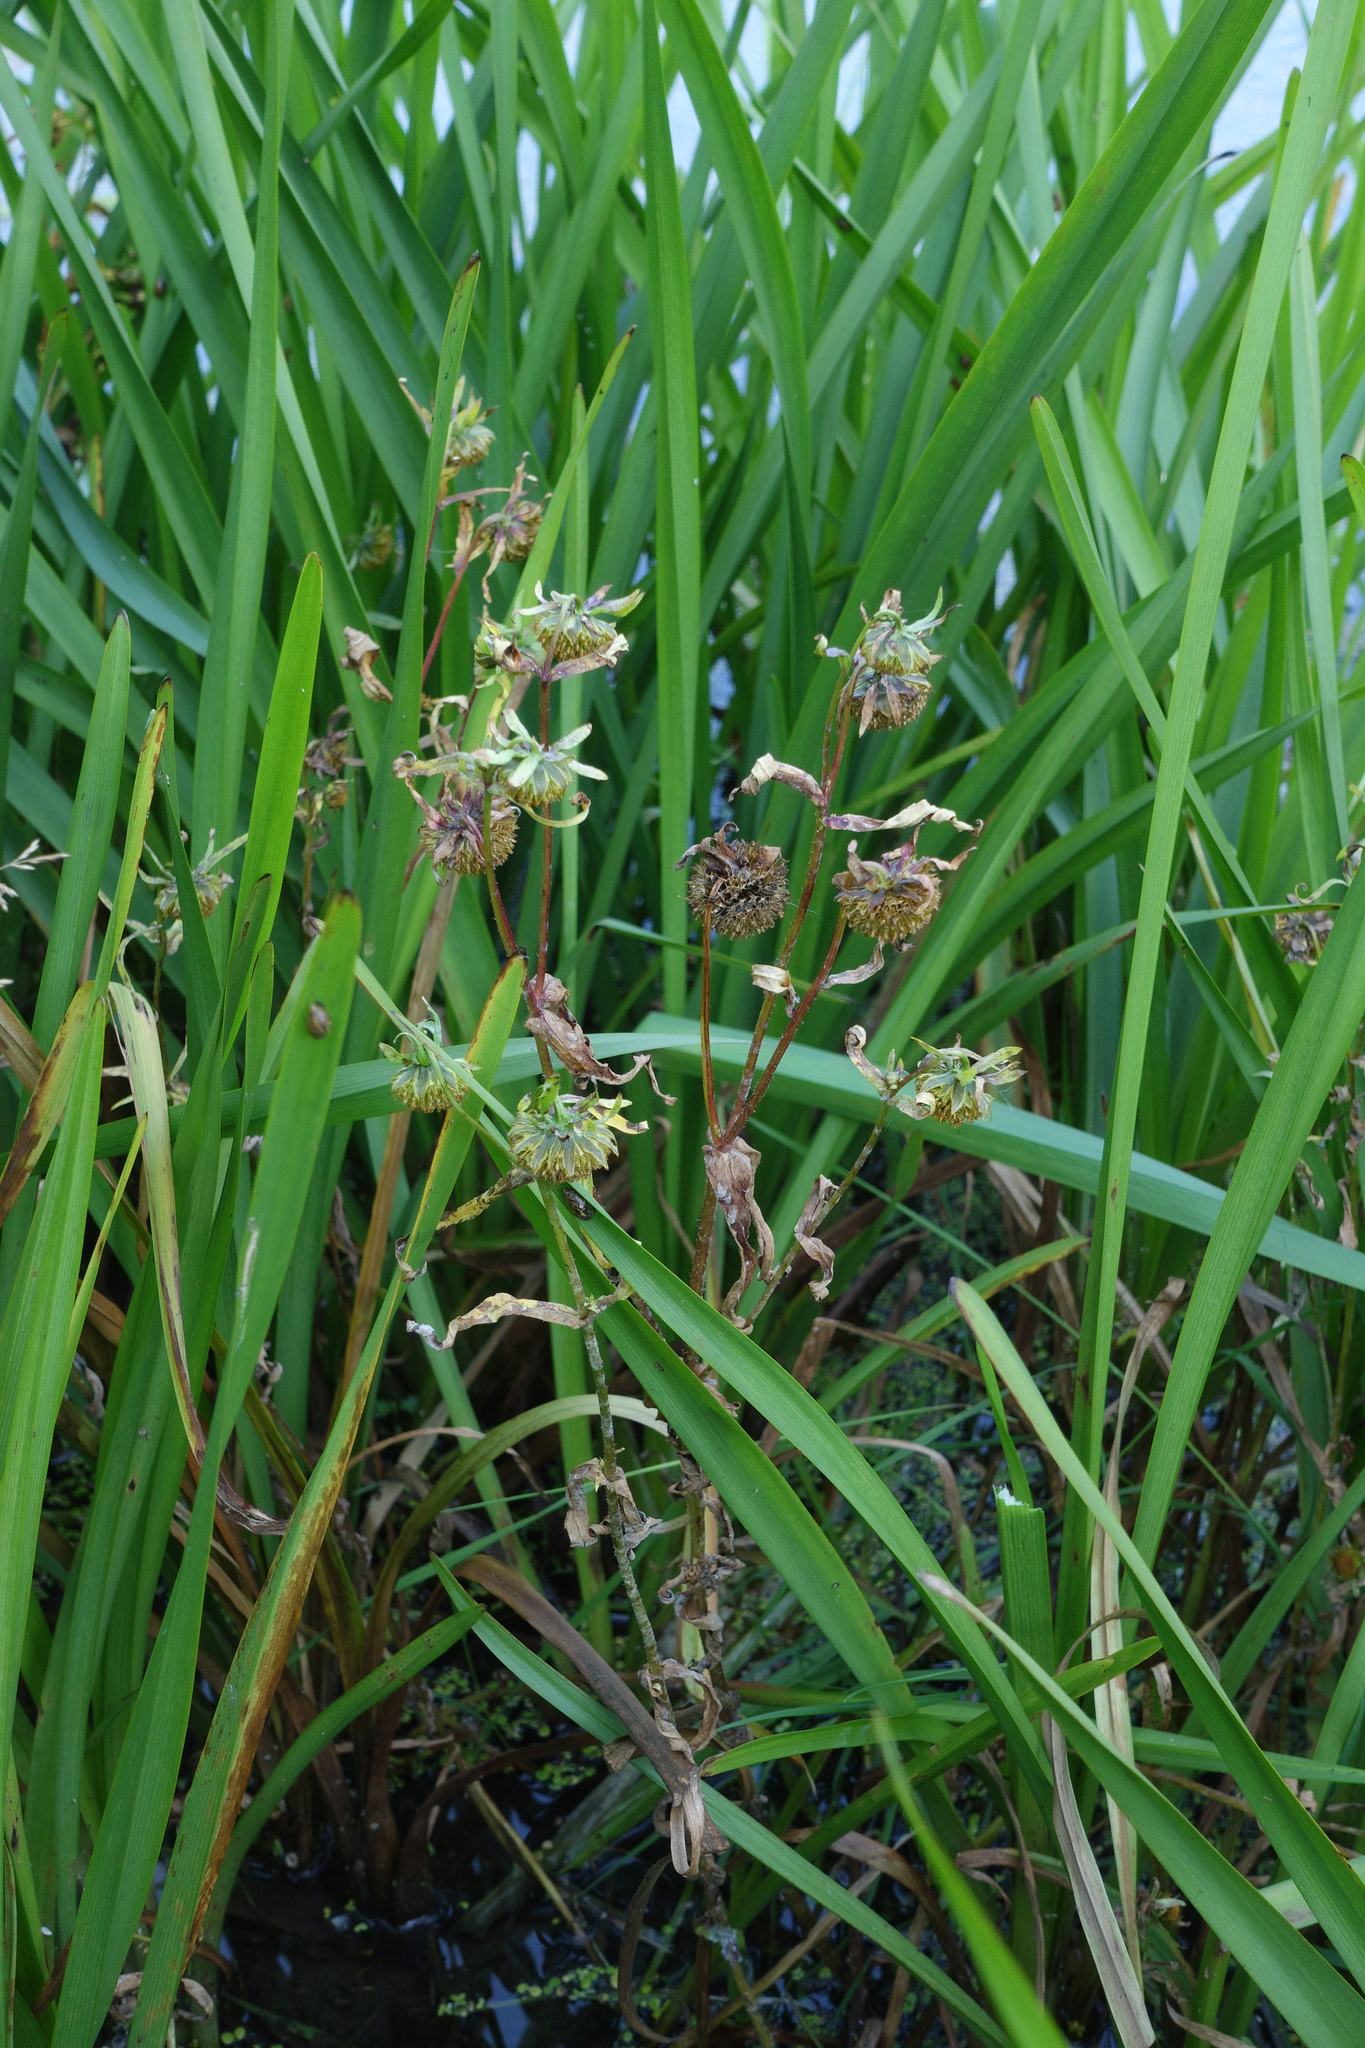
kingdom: Plantae
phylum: Tracheophyta
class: Magnoliopsida
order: Asterales
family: Asteraceae
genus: Bidens
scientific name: Bidens cernua
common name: Nodding bur-marigold
